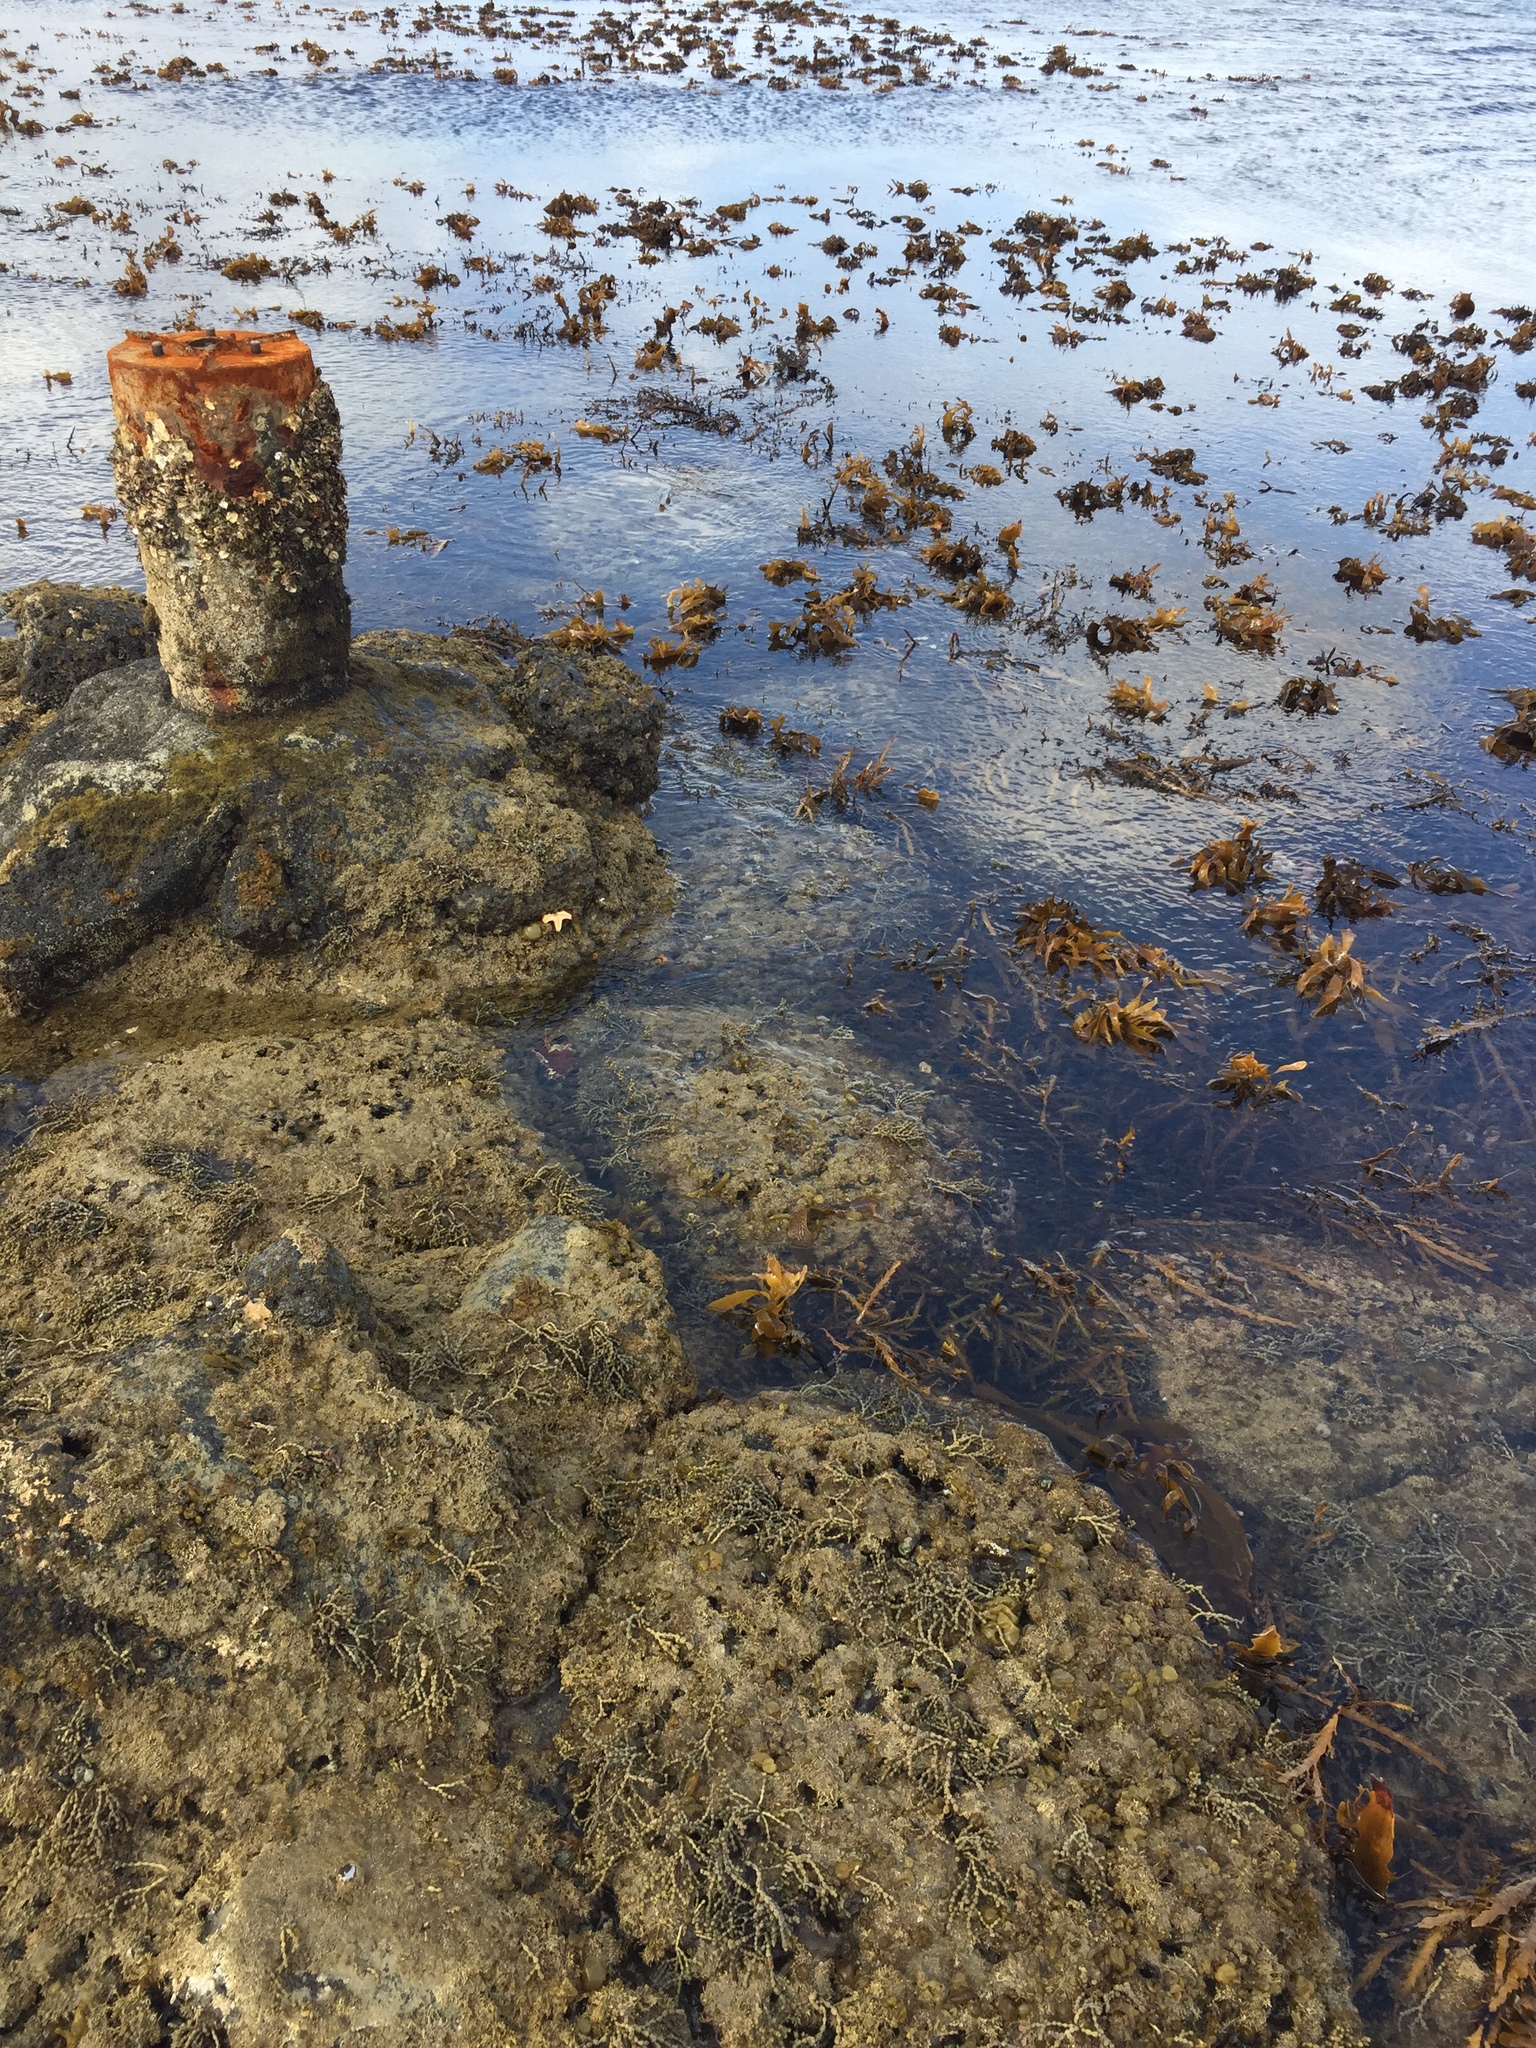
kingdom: Animalia
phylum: Arthropoda
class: Malacostraca
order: Isopoda
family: Sphaeromatidae
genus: Amphoroidea
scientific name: Amphoroidea media
